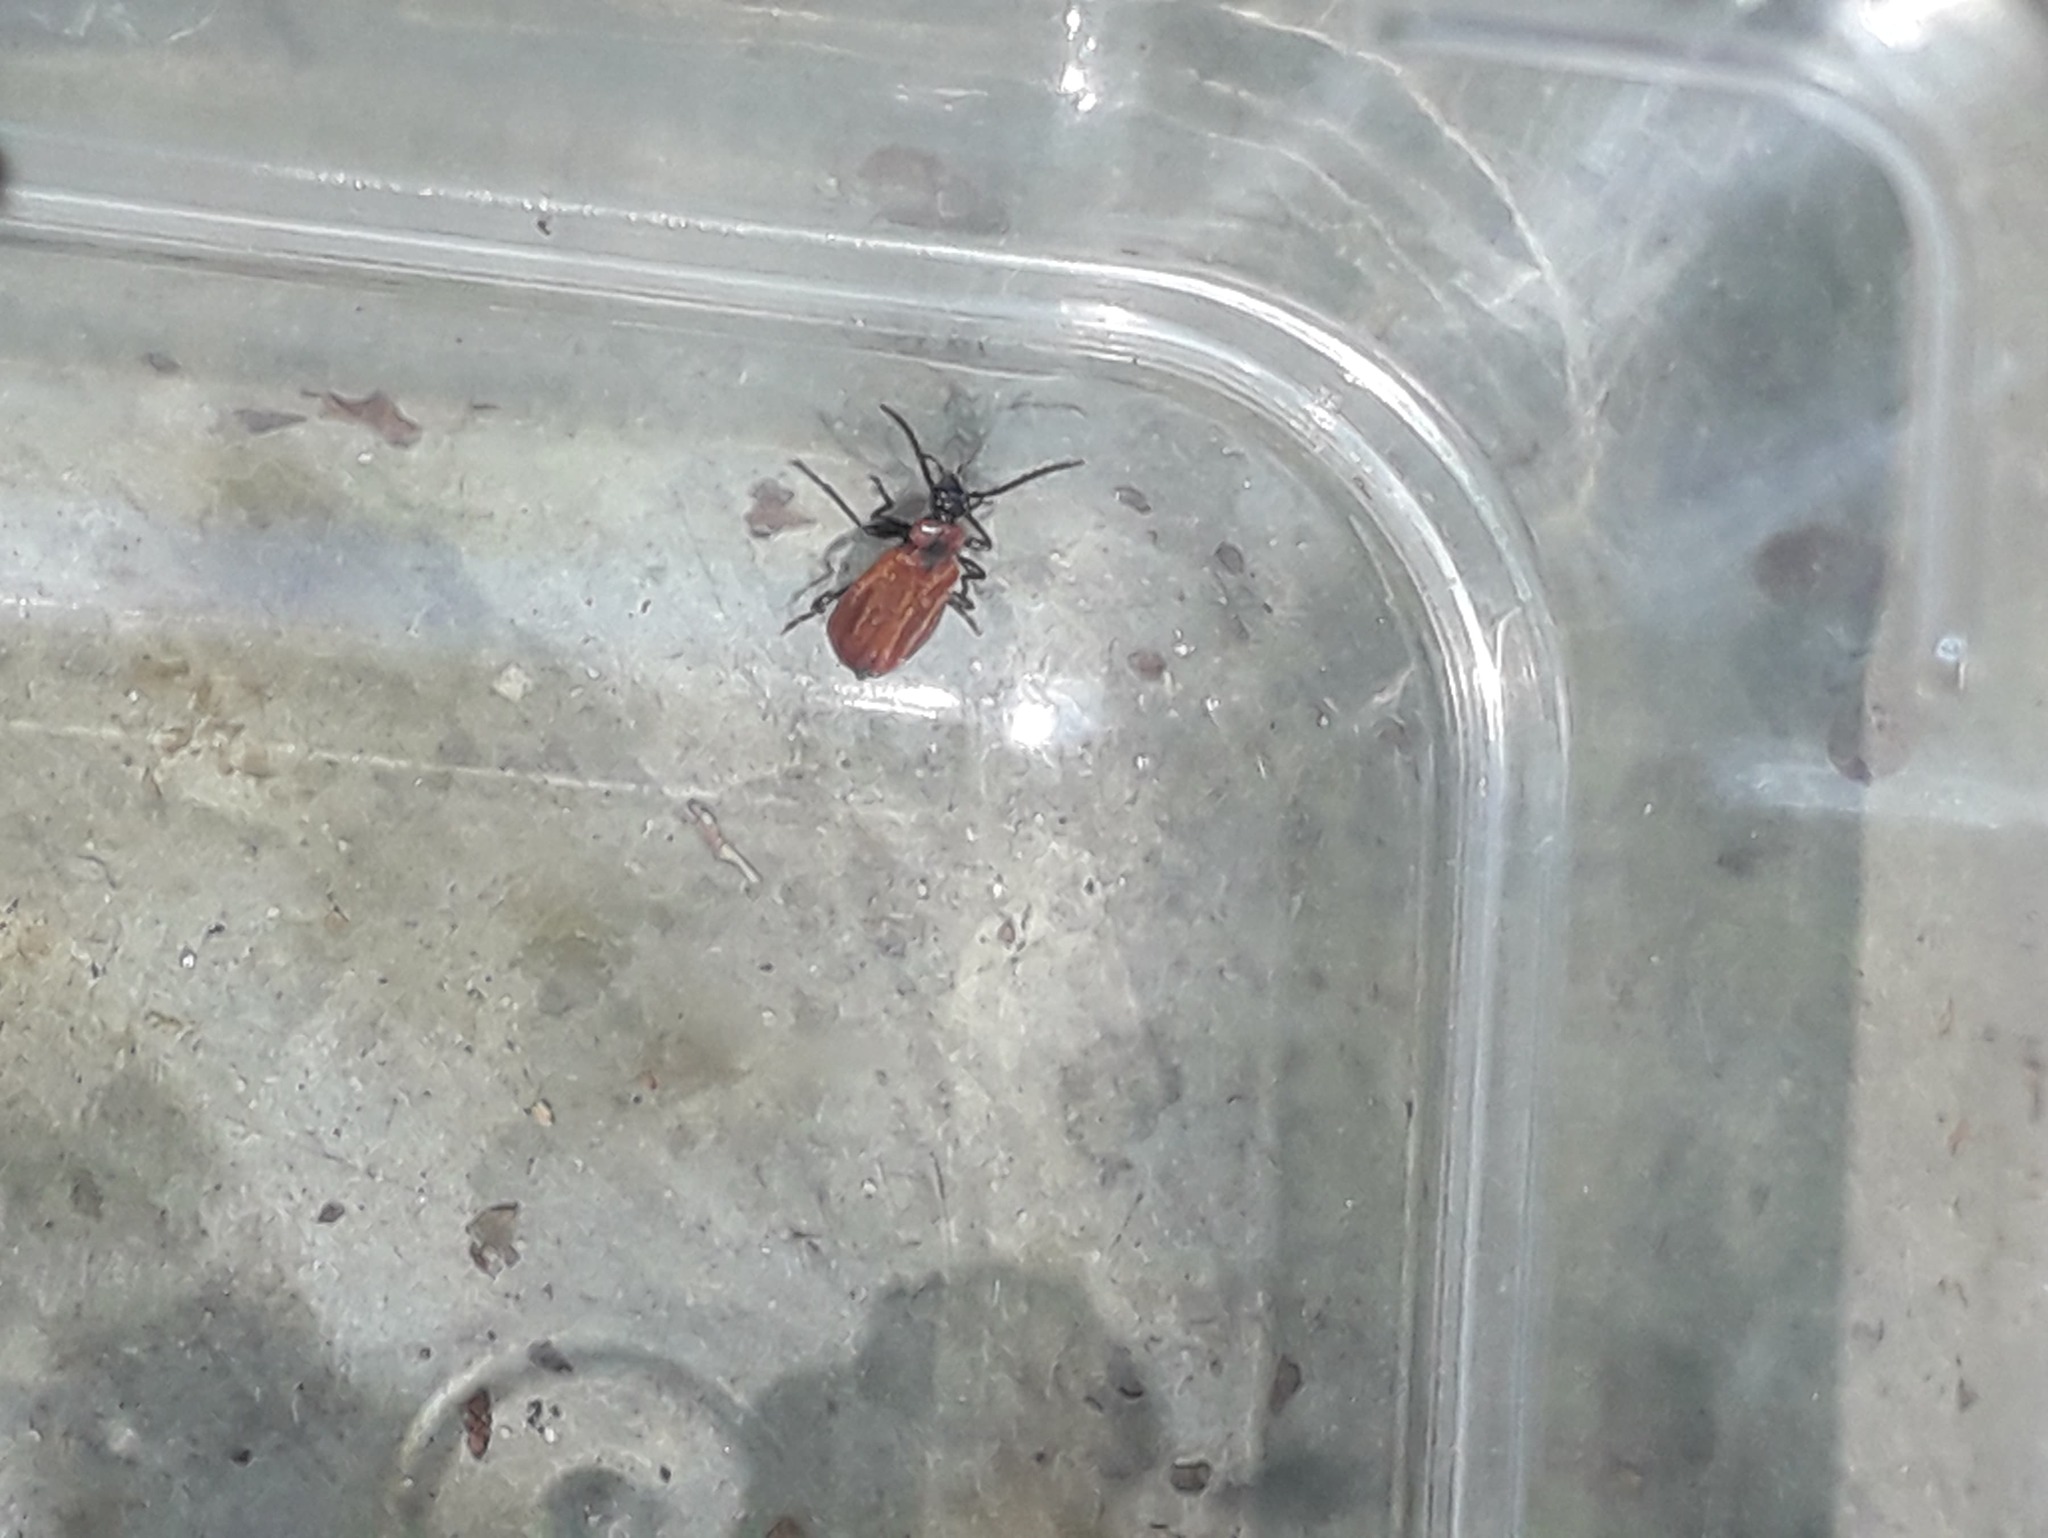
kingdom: Animalia
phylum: Arthropoda
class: Insecta
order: Coleoptera
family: Pyrochroidae
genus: Schizotus
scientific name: Schizotus pectinicornis
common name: Scarce cardinal beetle
